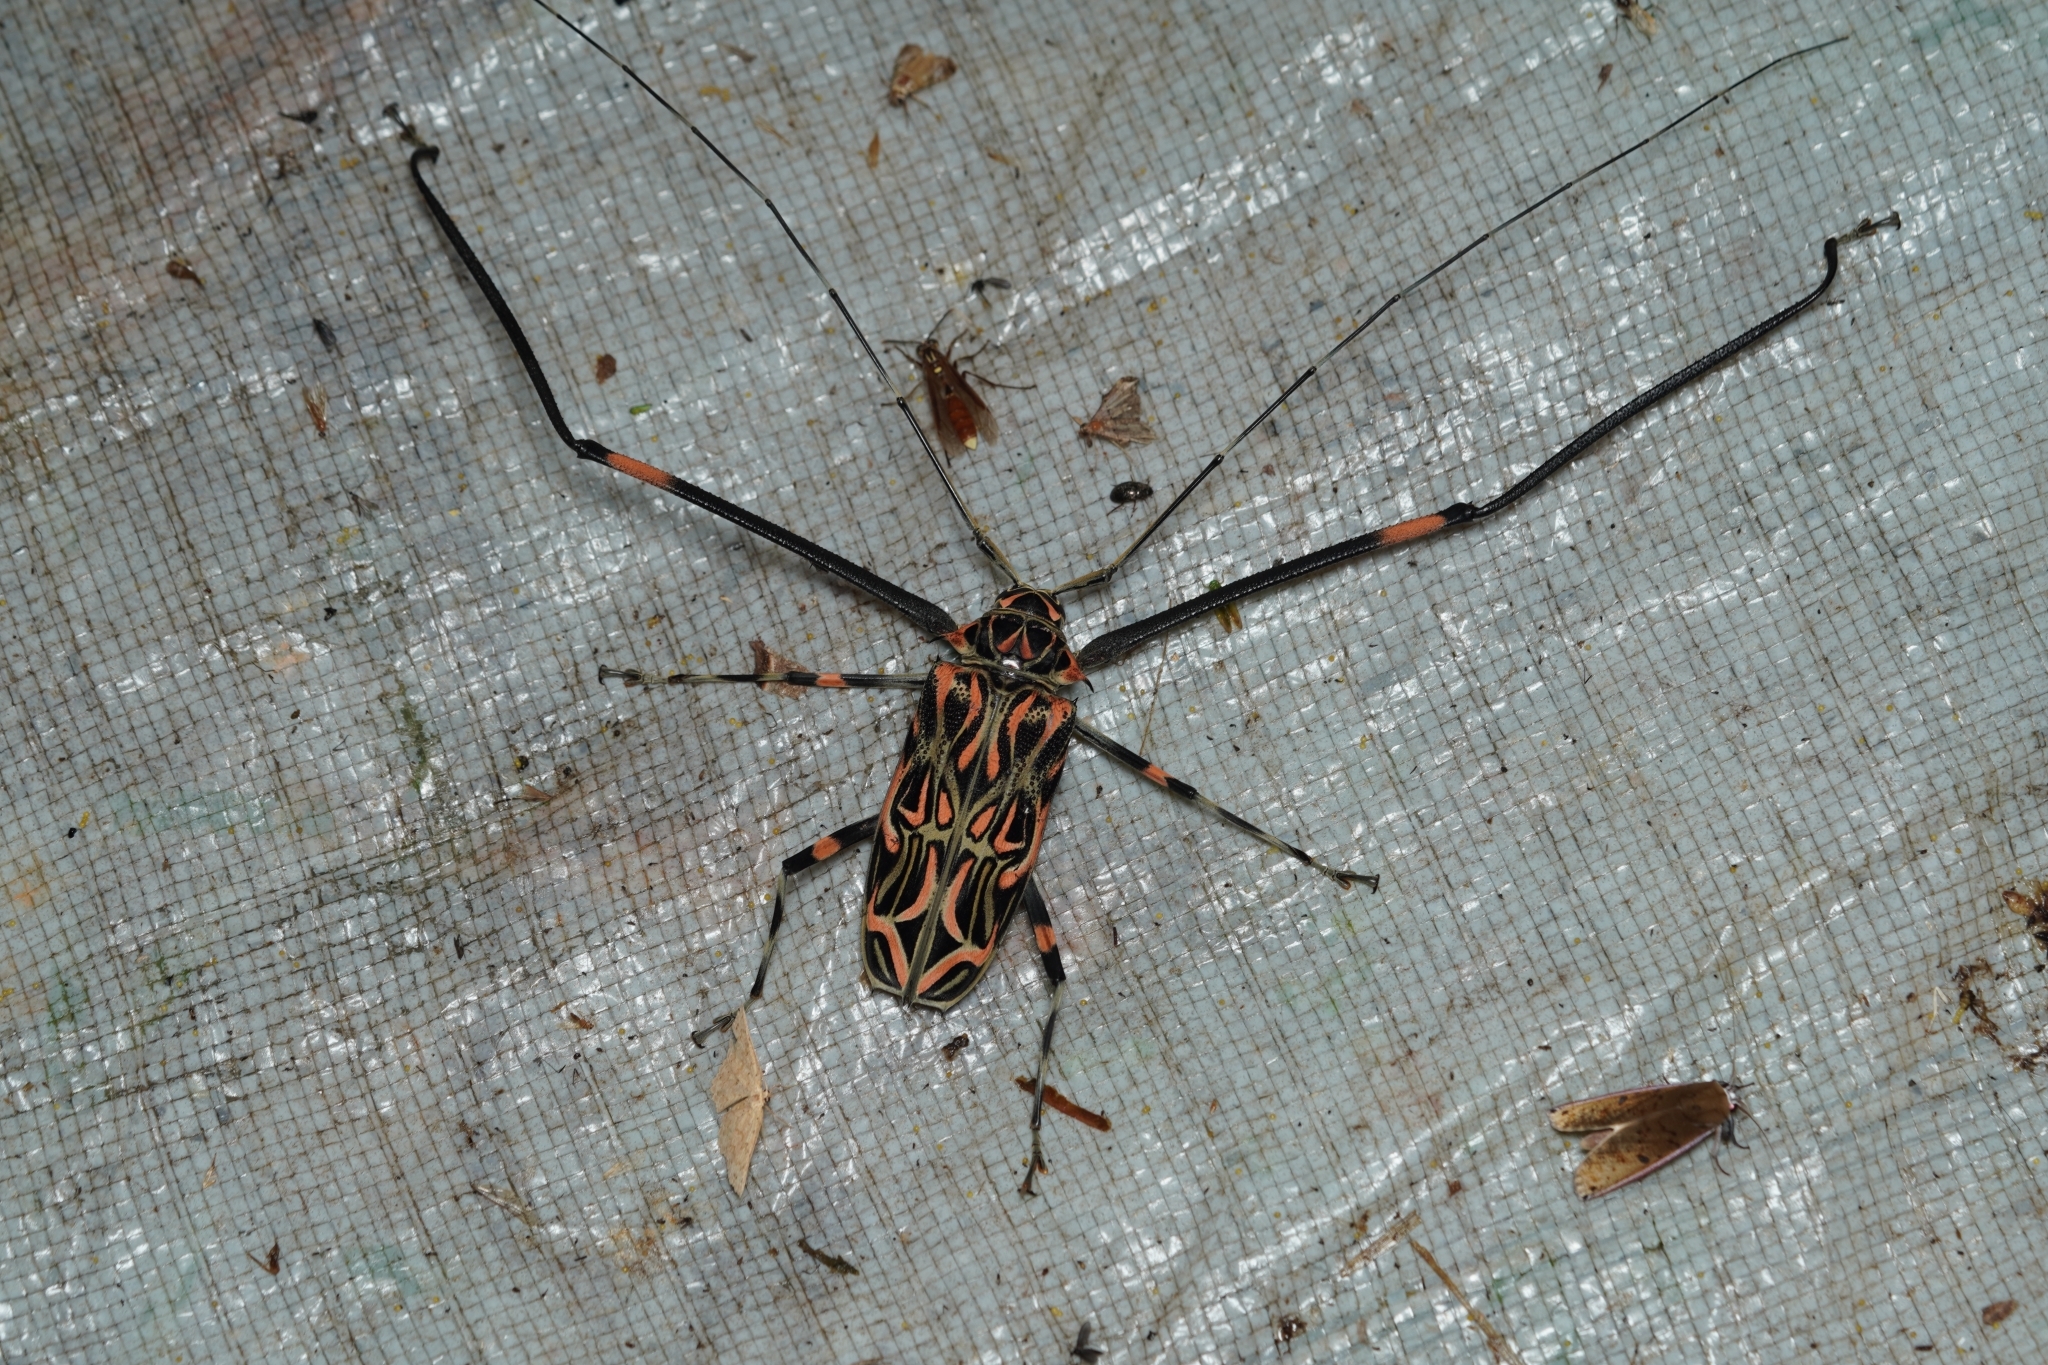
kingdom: Animalia
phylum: Arthropoda
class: Insecta
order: Coleoptera
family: Cerambycidae
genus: Acrocinus
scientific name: Acrocinus longimanus
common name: Arlequin
